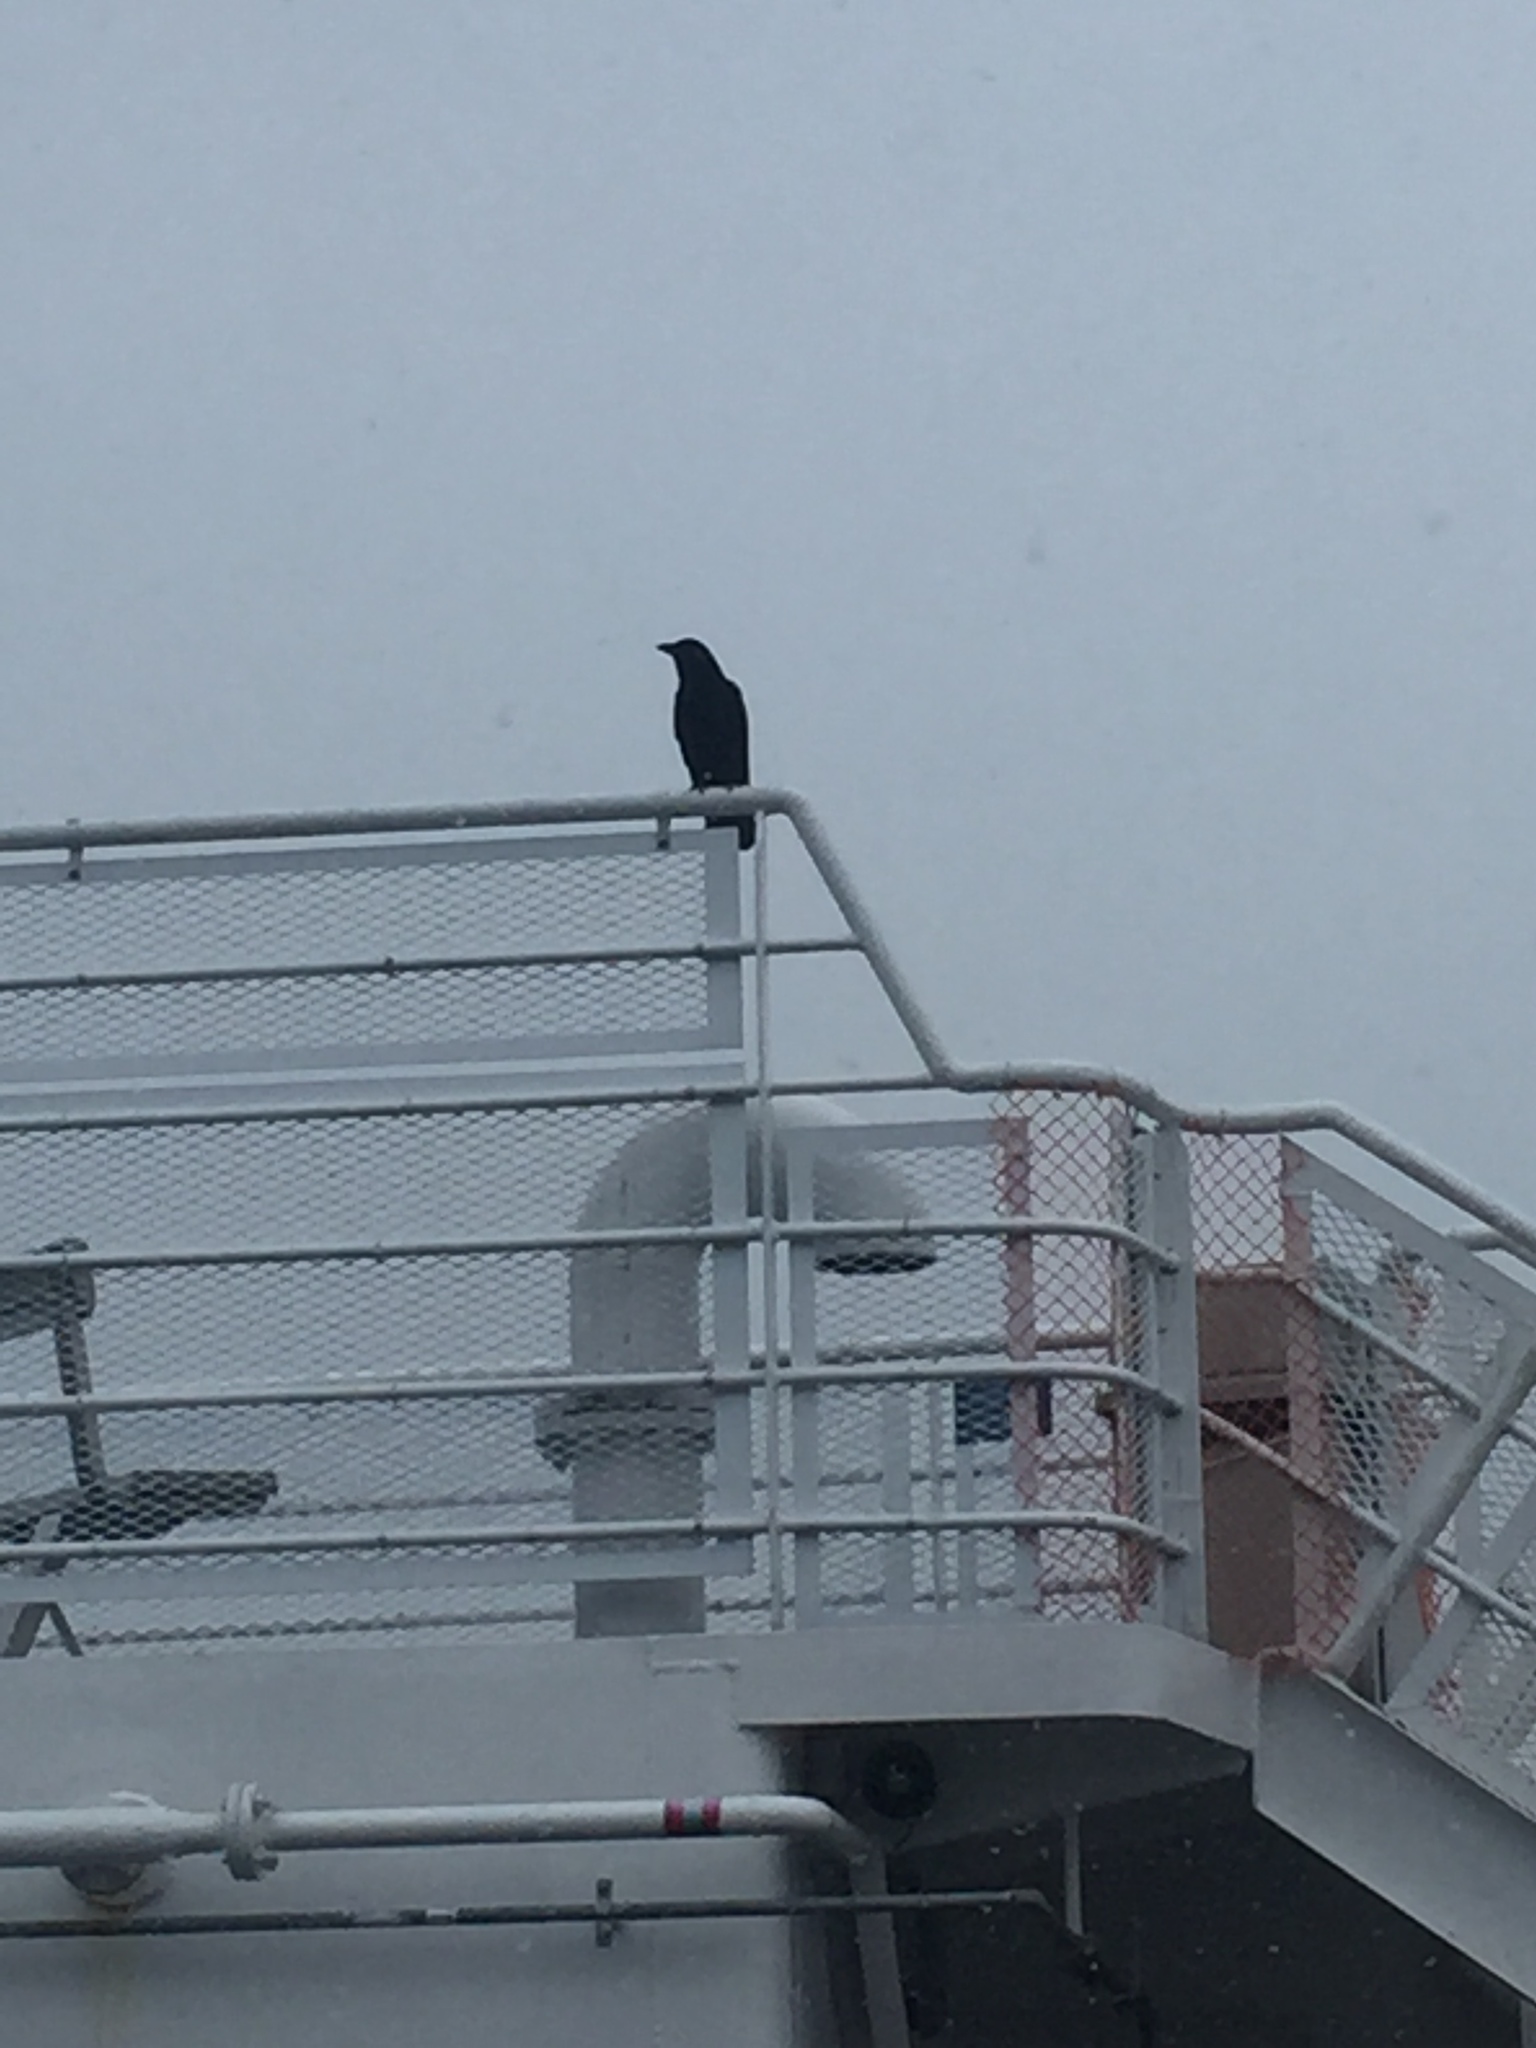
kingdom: Animalia
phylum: Chordata
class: Aves
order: Passeriformes
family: Corvidae
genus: Corvus
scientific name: Corvus
